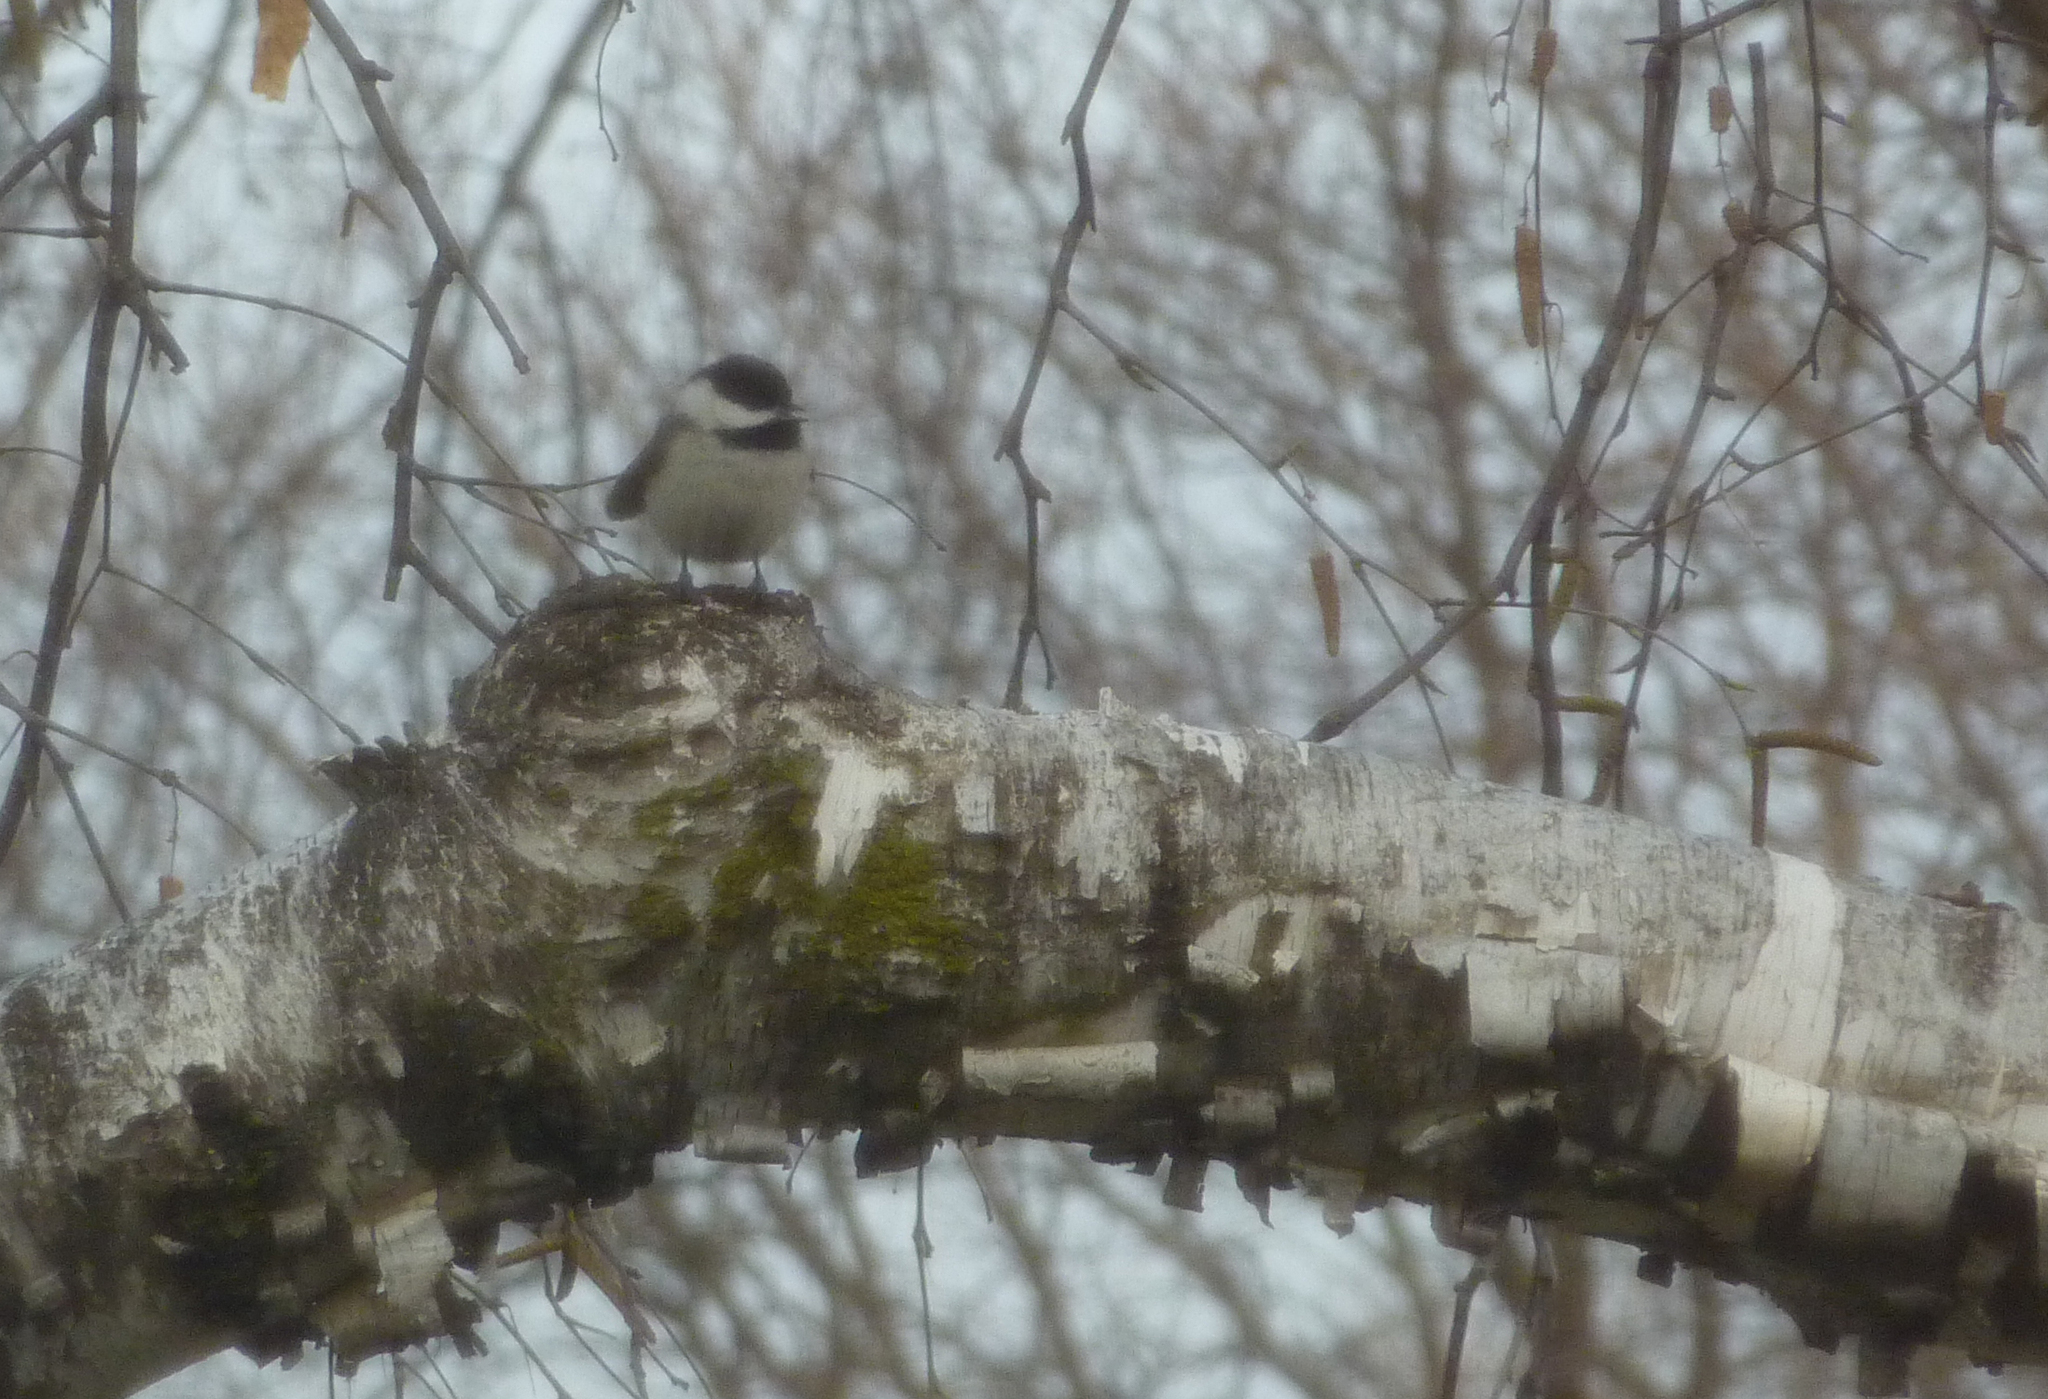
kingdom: Animalia
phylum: Chordata
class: Aves
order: Passeriformes
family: Paridae
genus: Poecile
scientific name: Poecile atricapillus
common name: Black-capped chickadee
